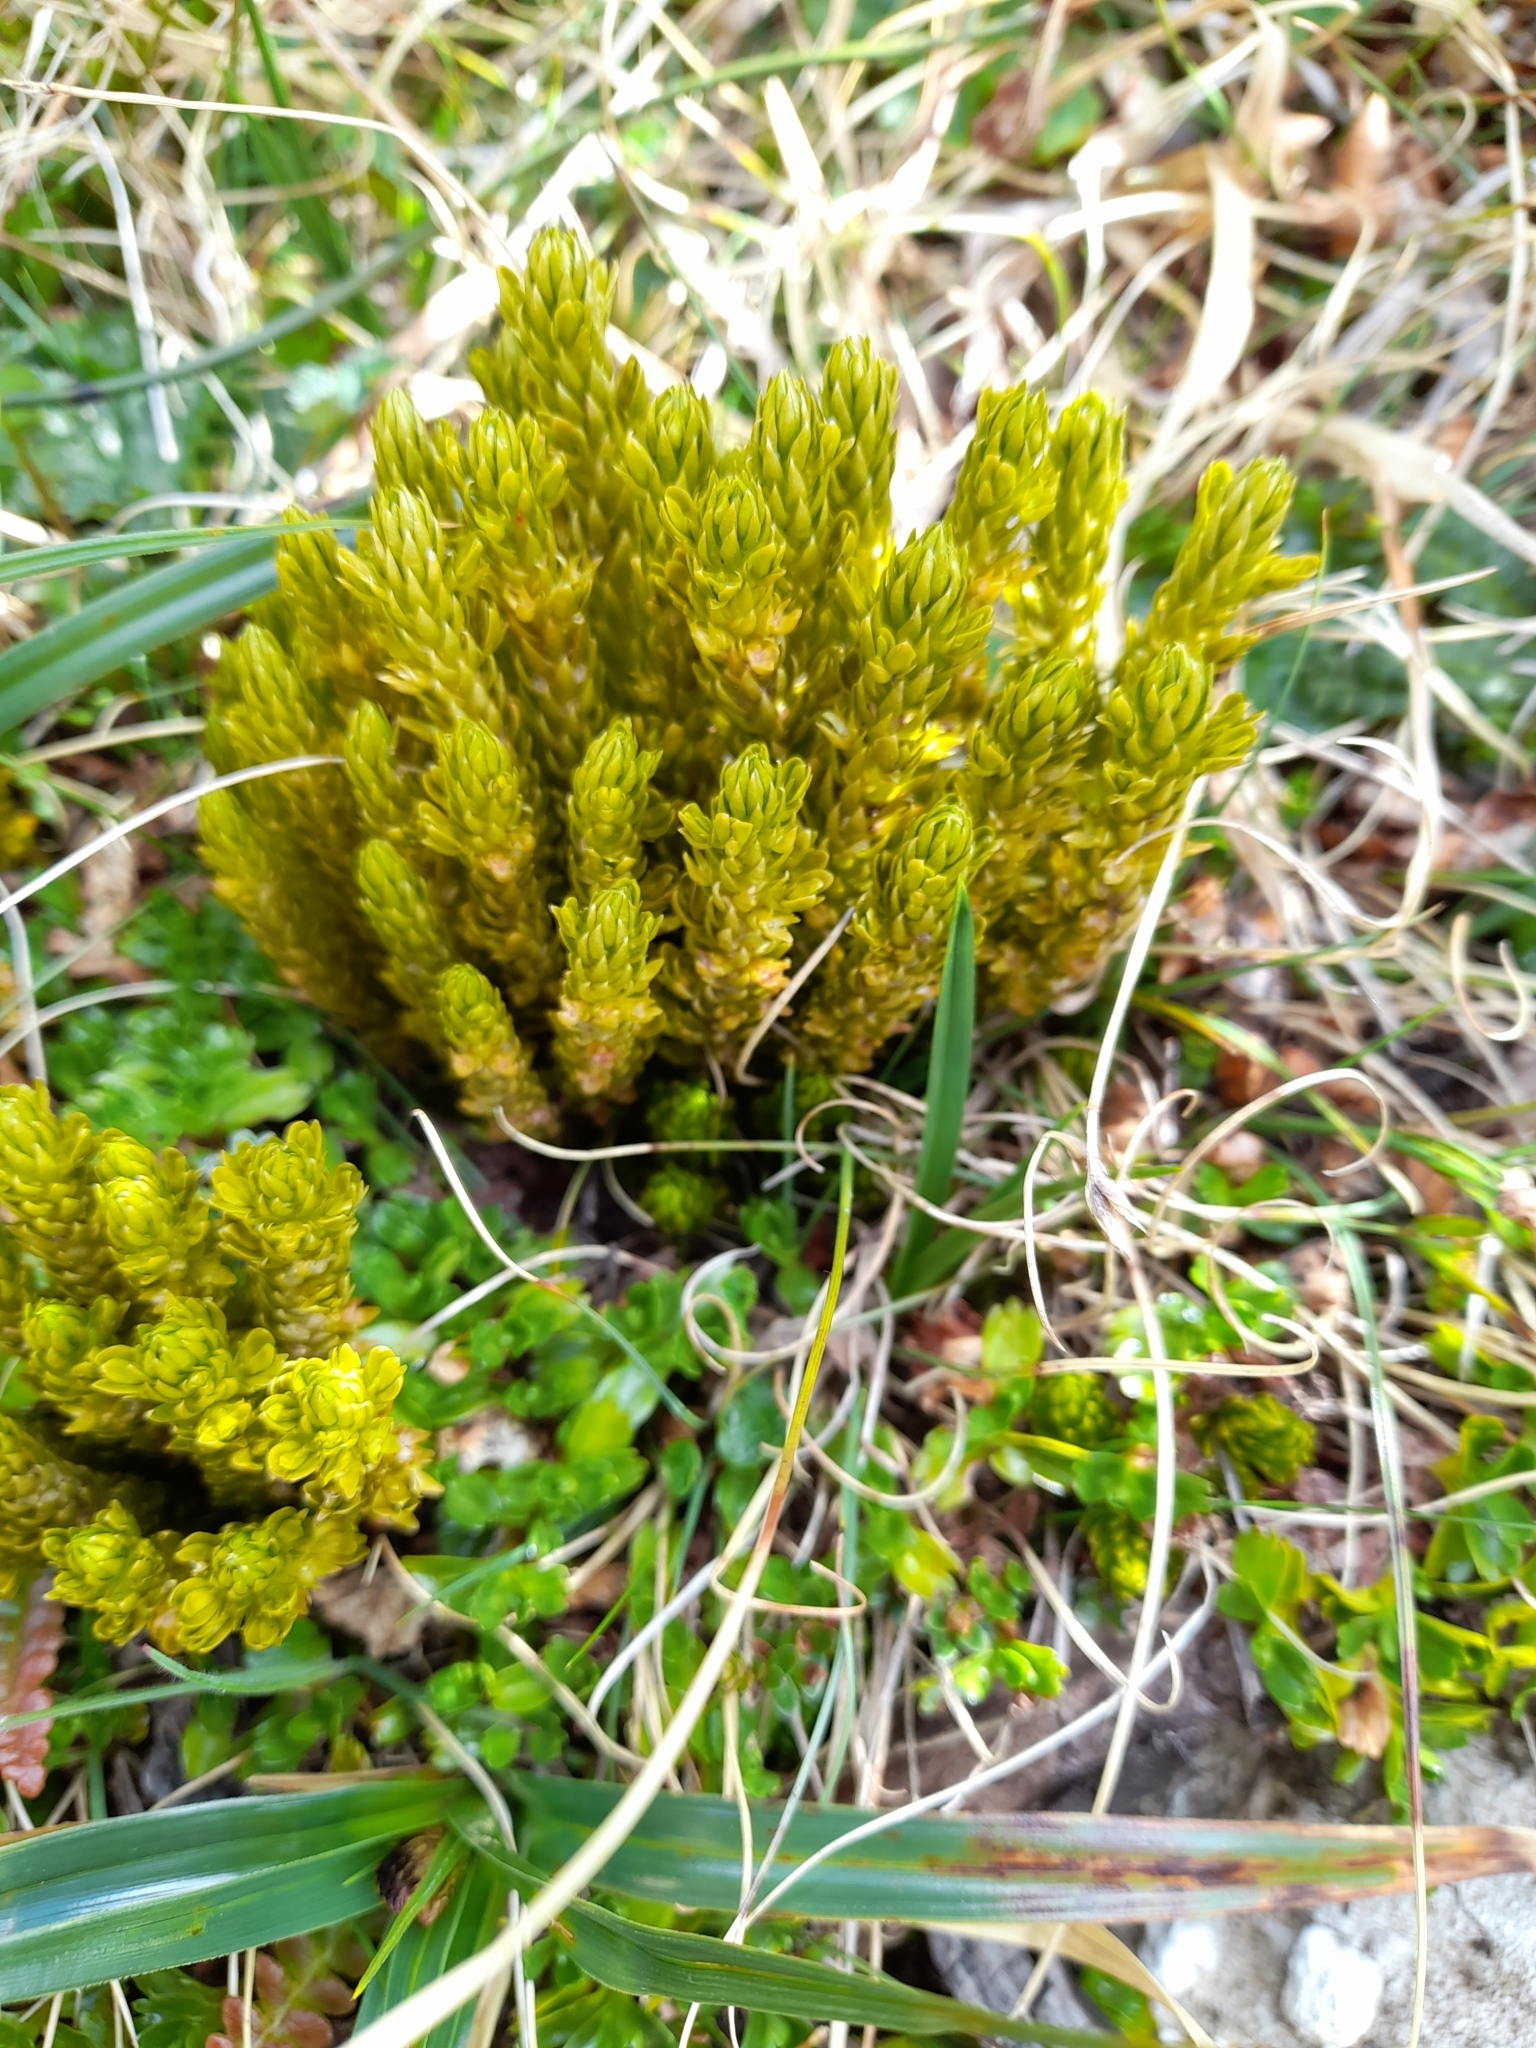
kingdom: Plantae
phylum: Tracheophyta
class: Lycopodiopsida
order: Lycopodiales
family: Lycopodiaceae
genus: Huperzia
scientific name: Huperzia fuegiana
